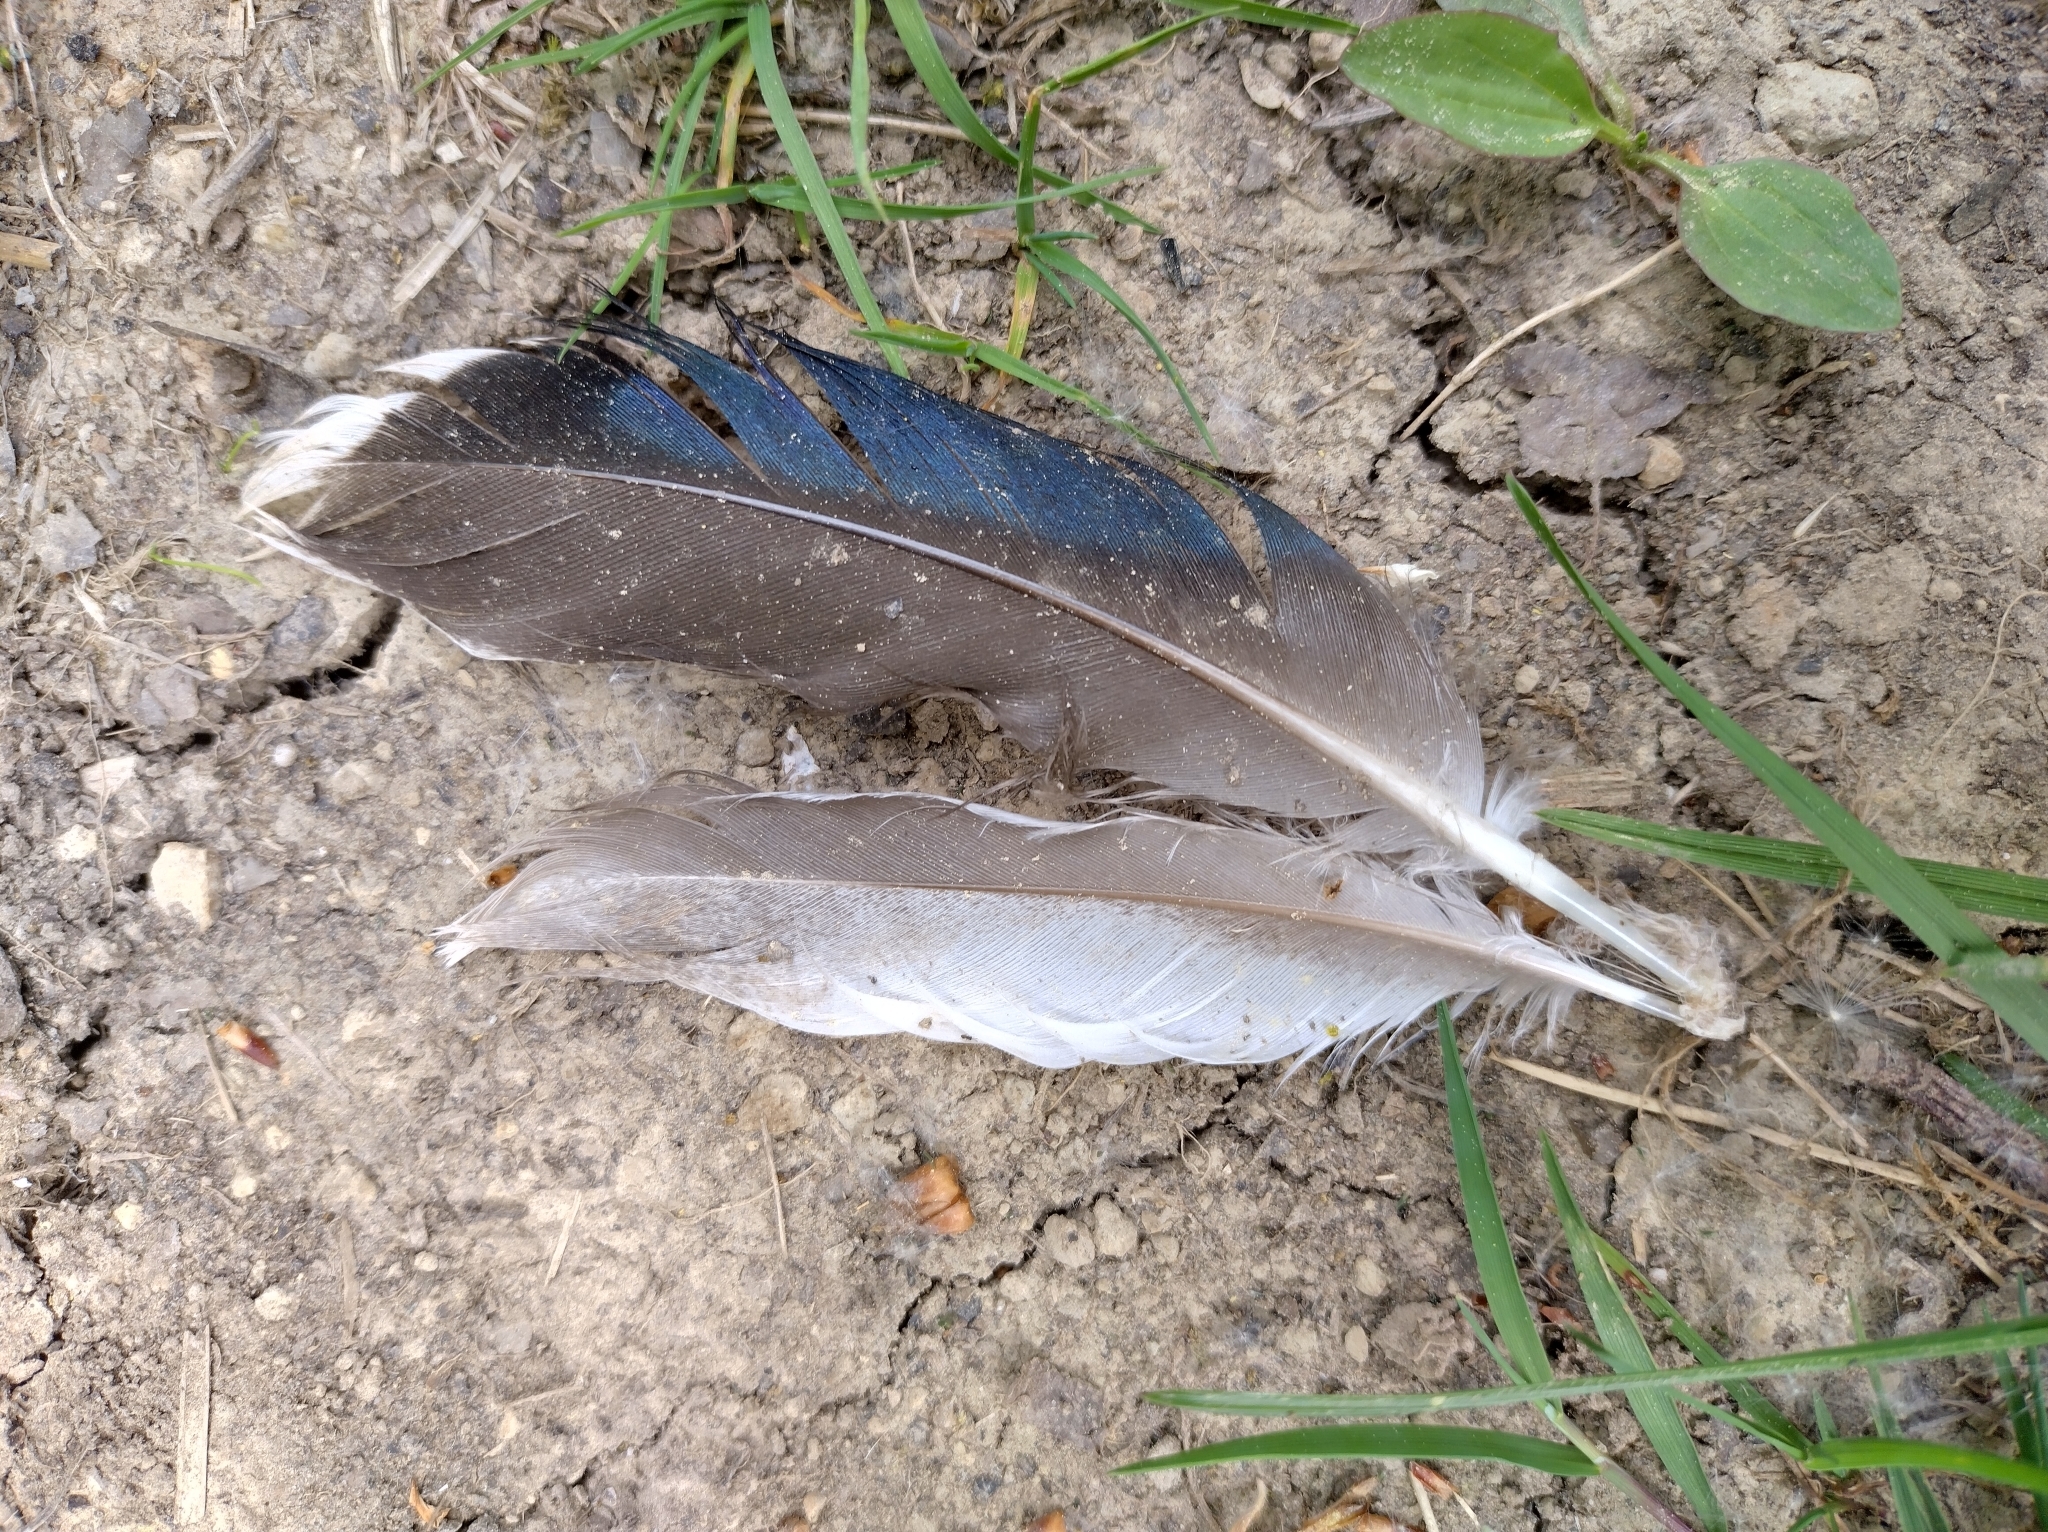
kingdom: Animalia
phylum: Chordata
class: Aves
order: Anseriformes
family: Anatidae
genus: Anas
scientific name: Anas platyrhynchos
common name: Mallard
